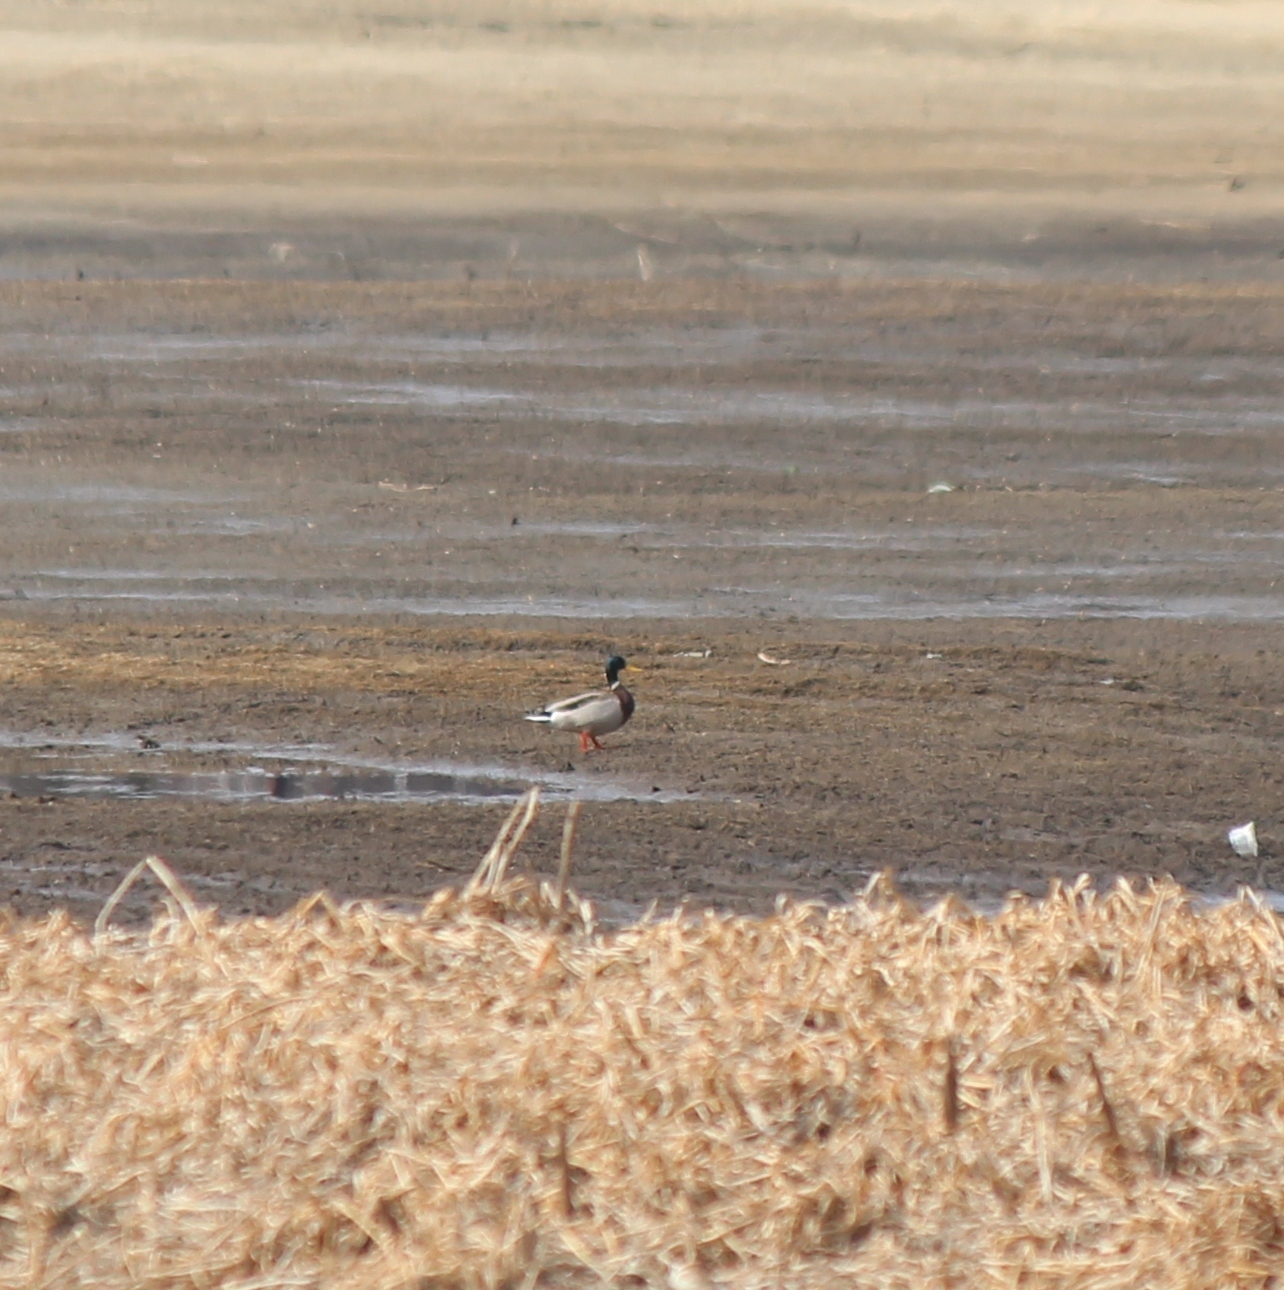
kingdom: Animalia
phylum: Chordata
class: Aves
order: Anseriformes
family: Anatidae
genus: Anas
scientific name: Anas platyrhynchos
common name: Mallard
